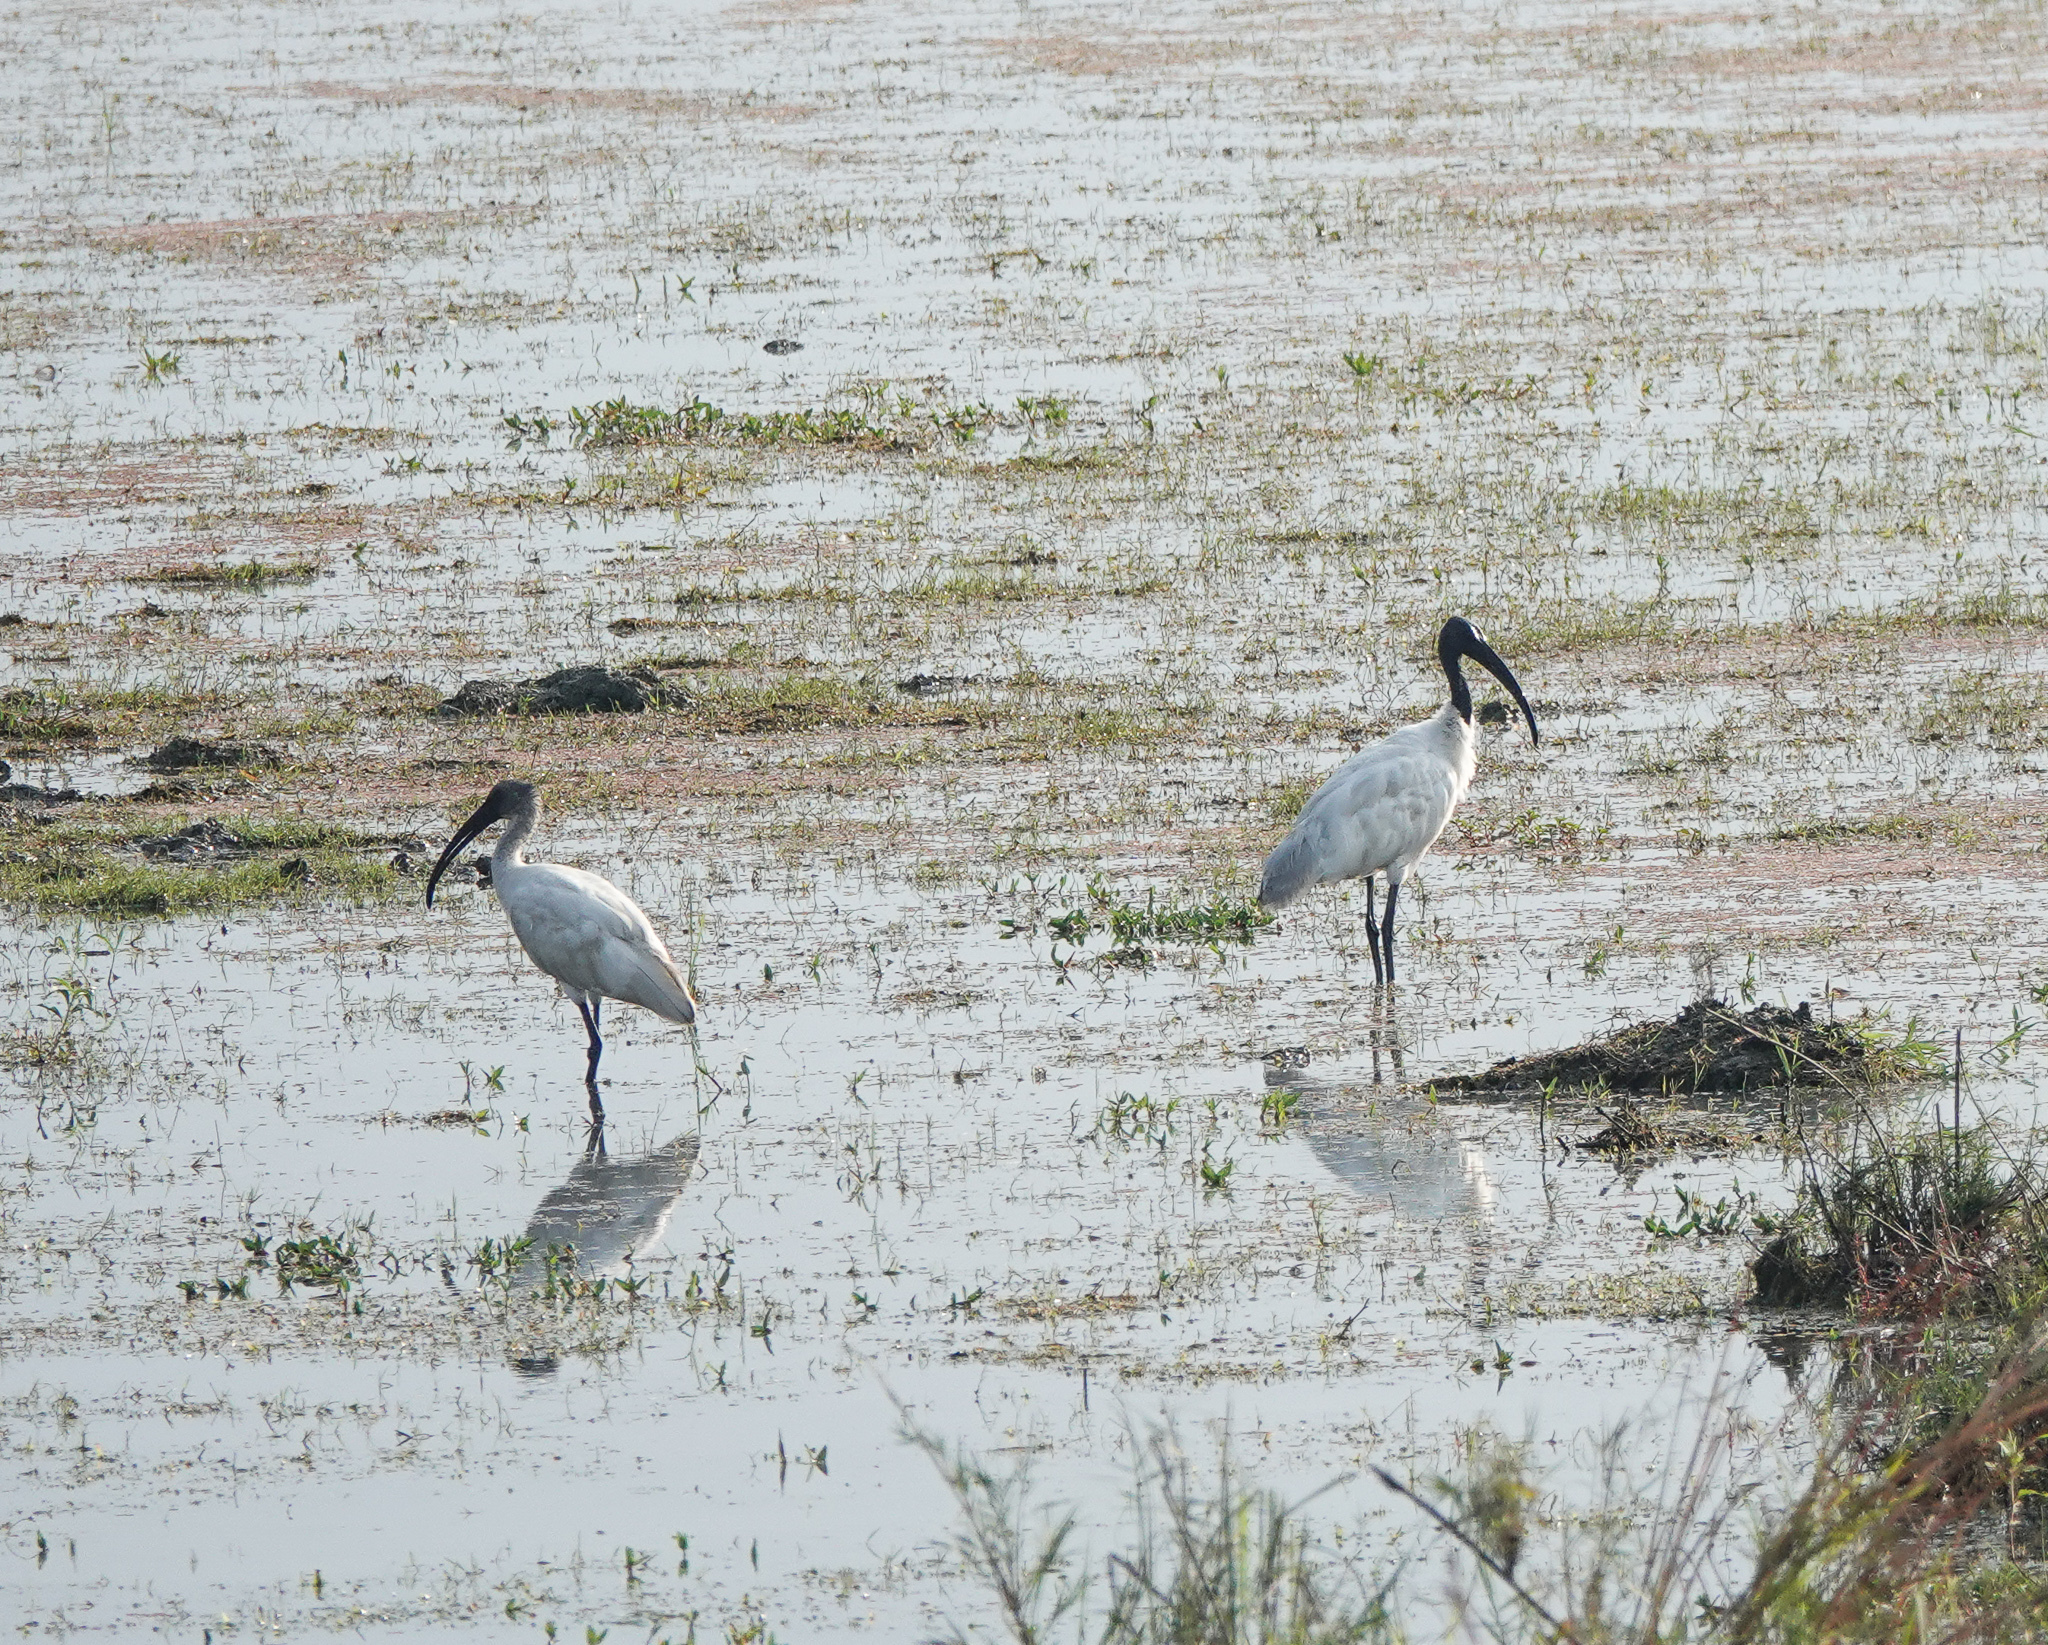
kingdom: Animalia
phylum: Chordata
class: Aves
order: Pelecaniformes
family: Threskiornithidae
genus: Threskiornis
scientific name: Threskiornis melanocephalus
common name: Black-headed ibis
